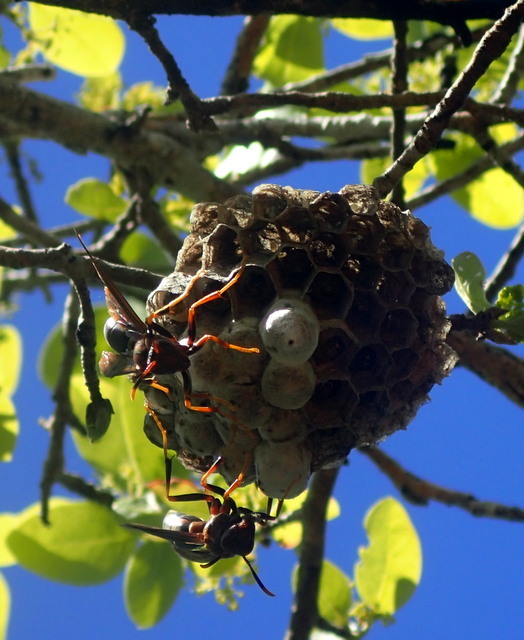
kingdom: Animalia
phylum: Arthropoda
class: Insecta
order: Hymenoptera
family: Eumenidae
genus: Polistes
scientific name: Polistes annularis
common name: Ringed paper wasp
